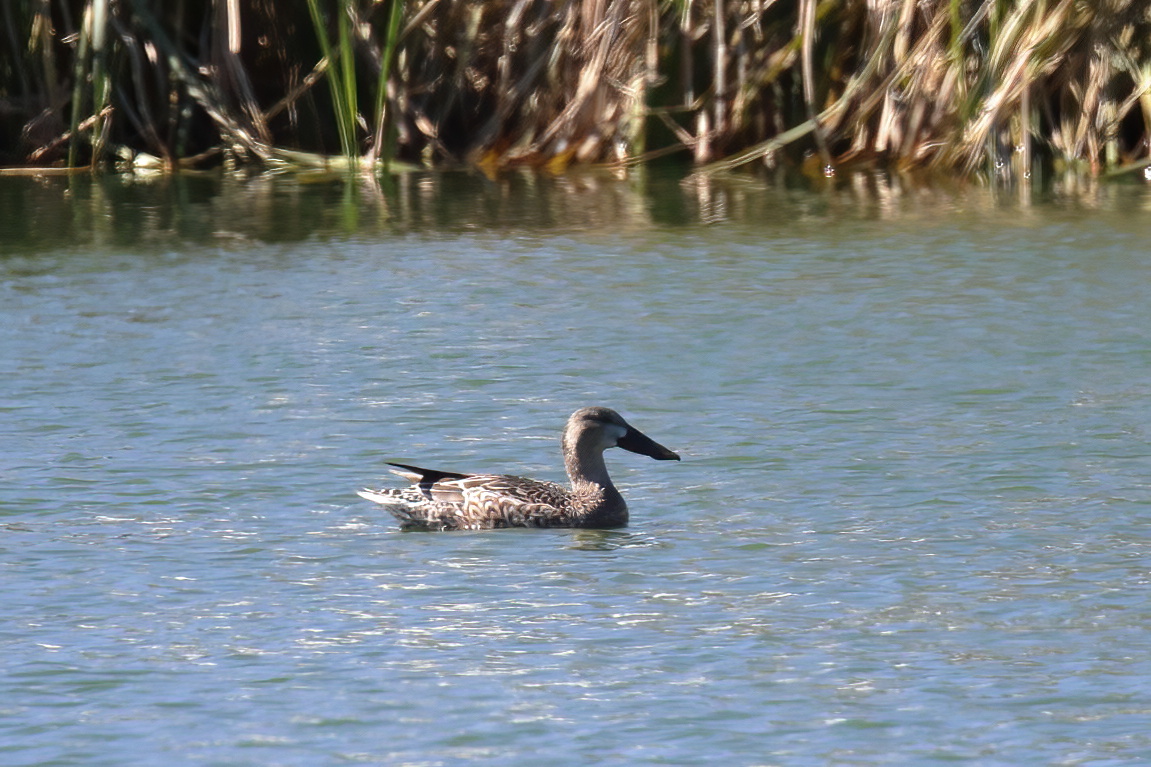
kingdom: Animalia
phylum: Chordata
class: Aves
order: Anseriformes
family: Anatidae
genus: Spatula
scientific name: Spatula clypeata
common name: Northern shoveler
